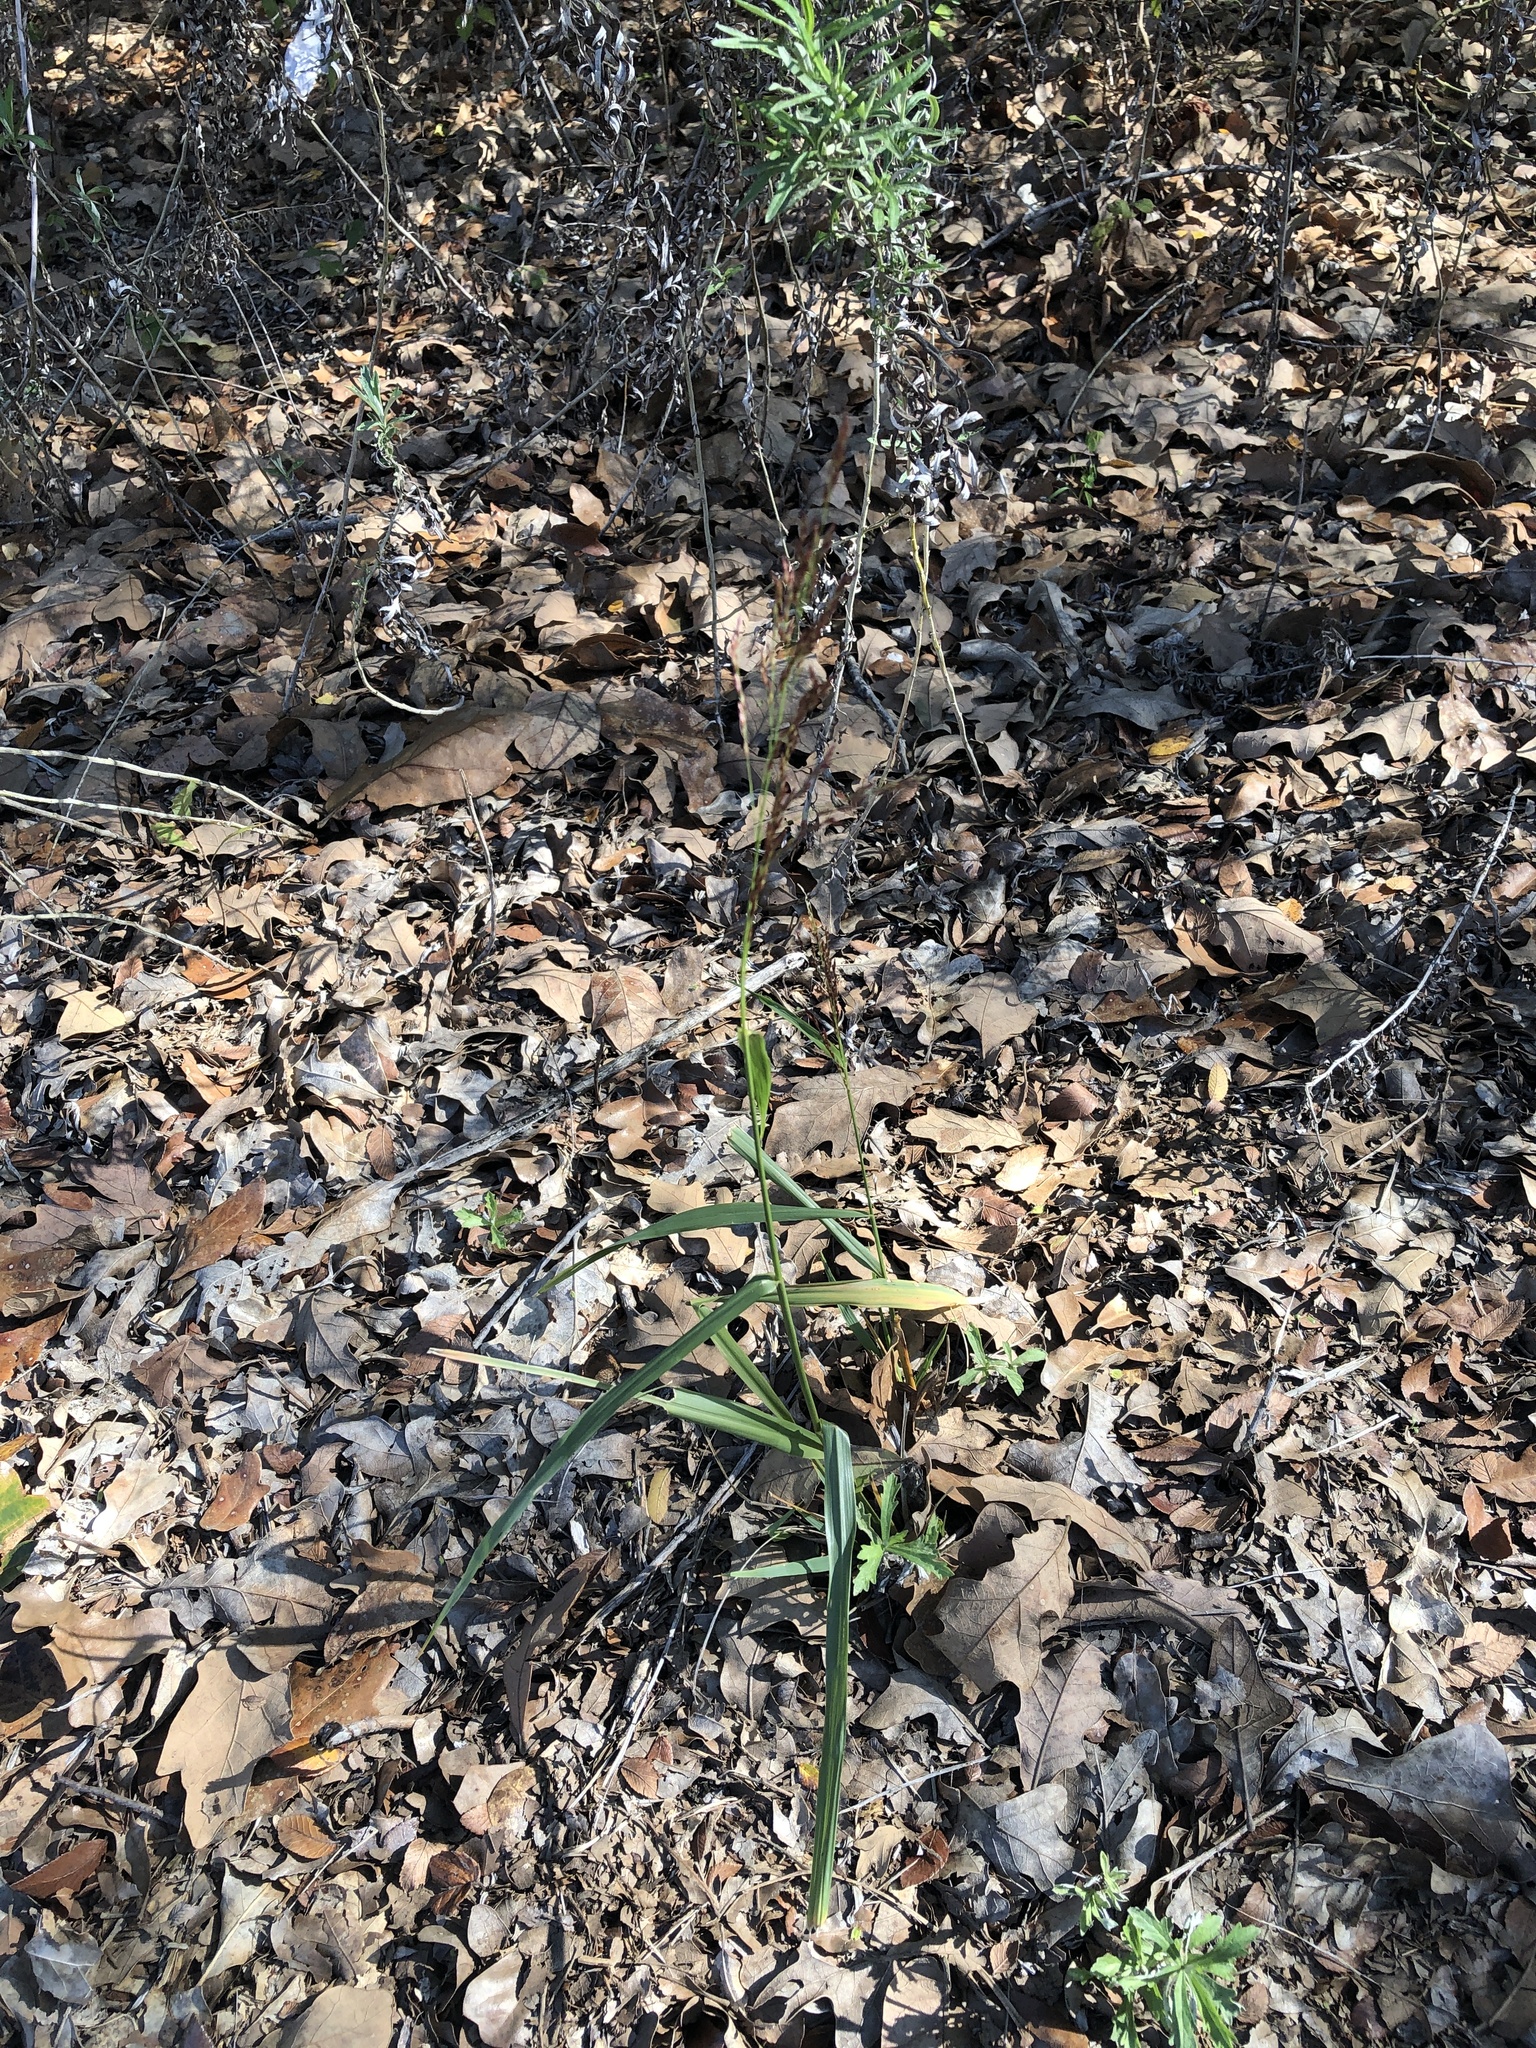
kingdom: Plantae
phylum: Tracheophyta
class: Liliopsida
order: Poales
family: Poaceae
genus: Tridens
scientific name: Tridens flavus
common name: Purpletop
